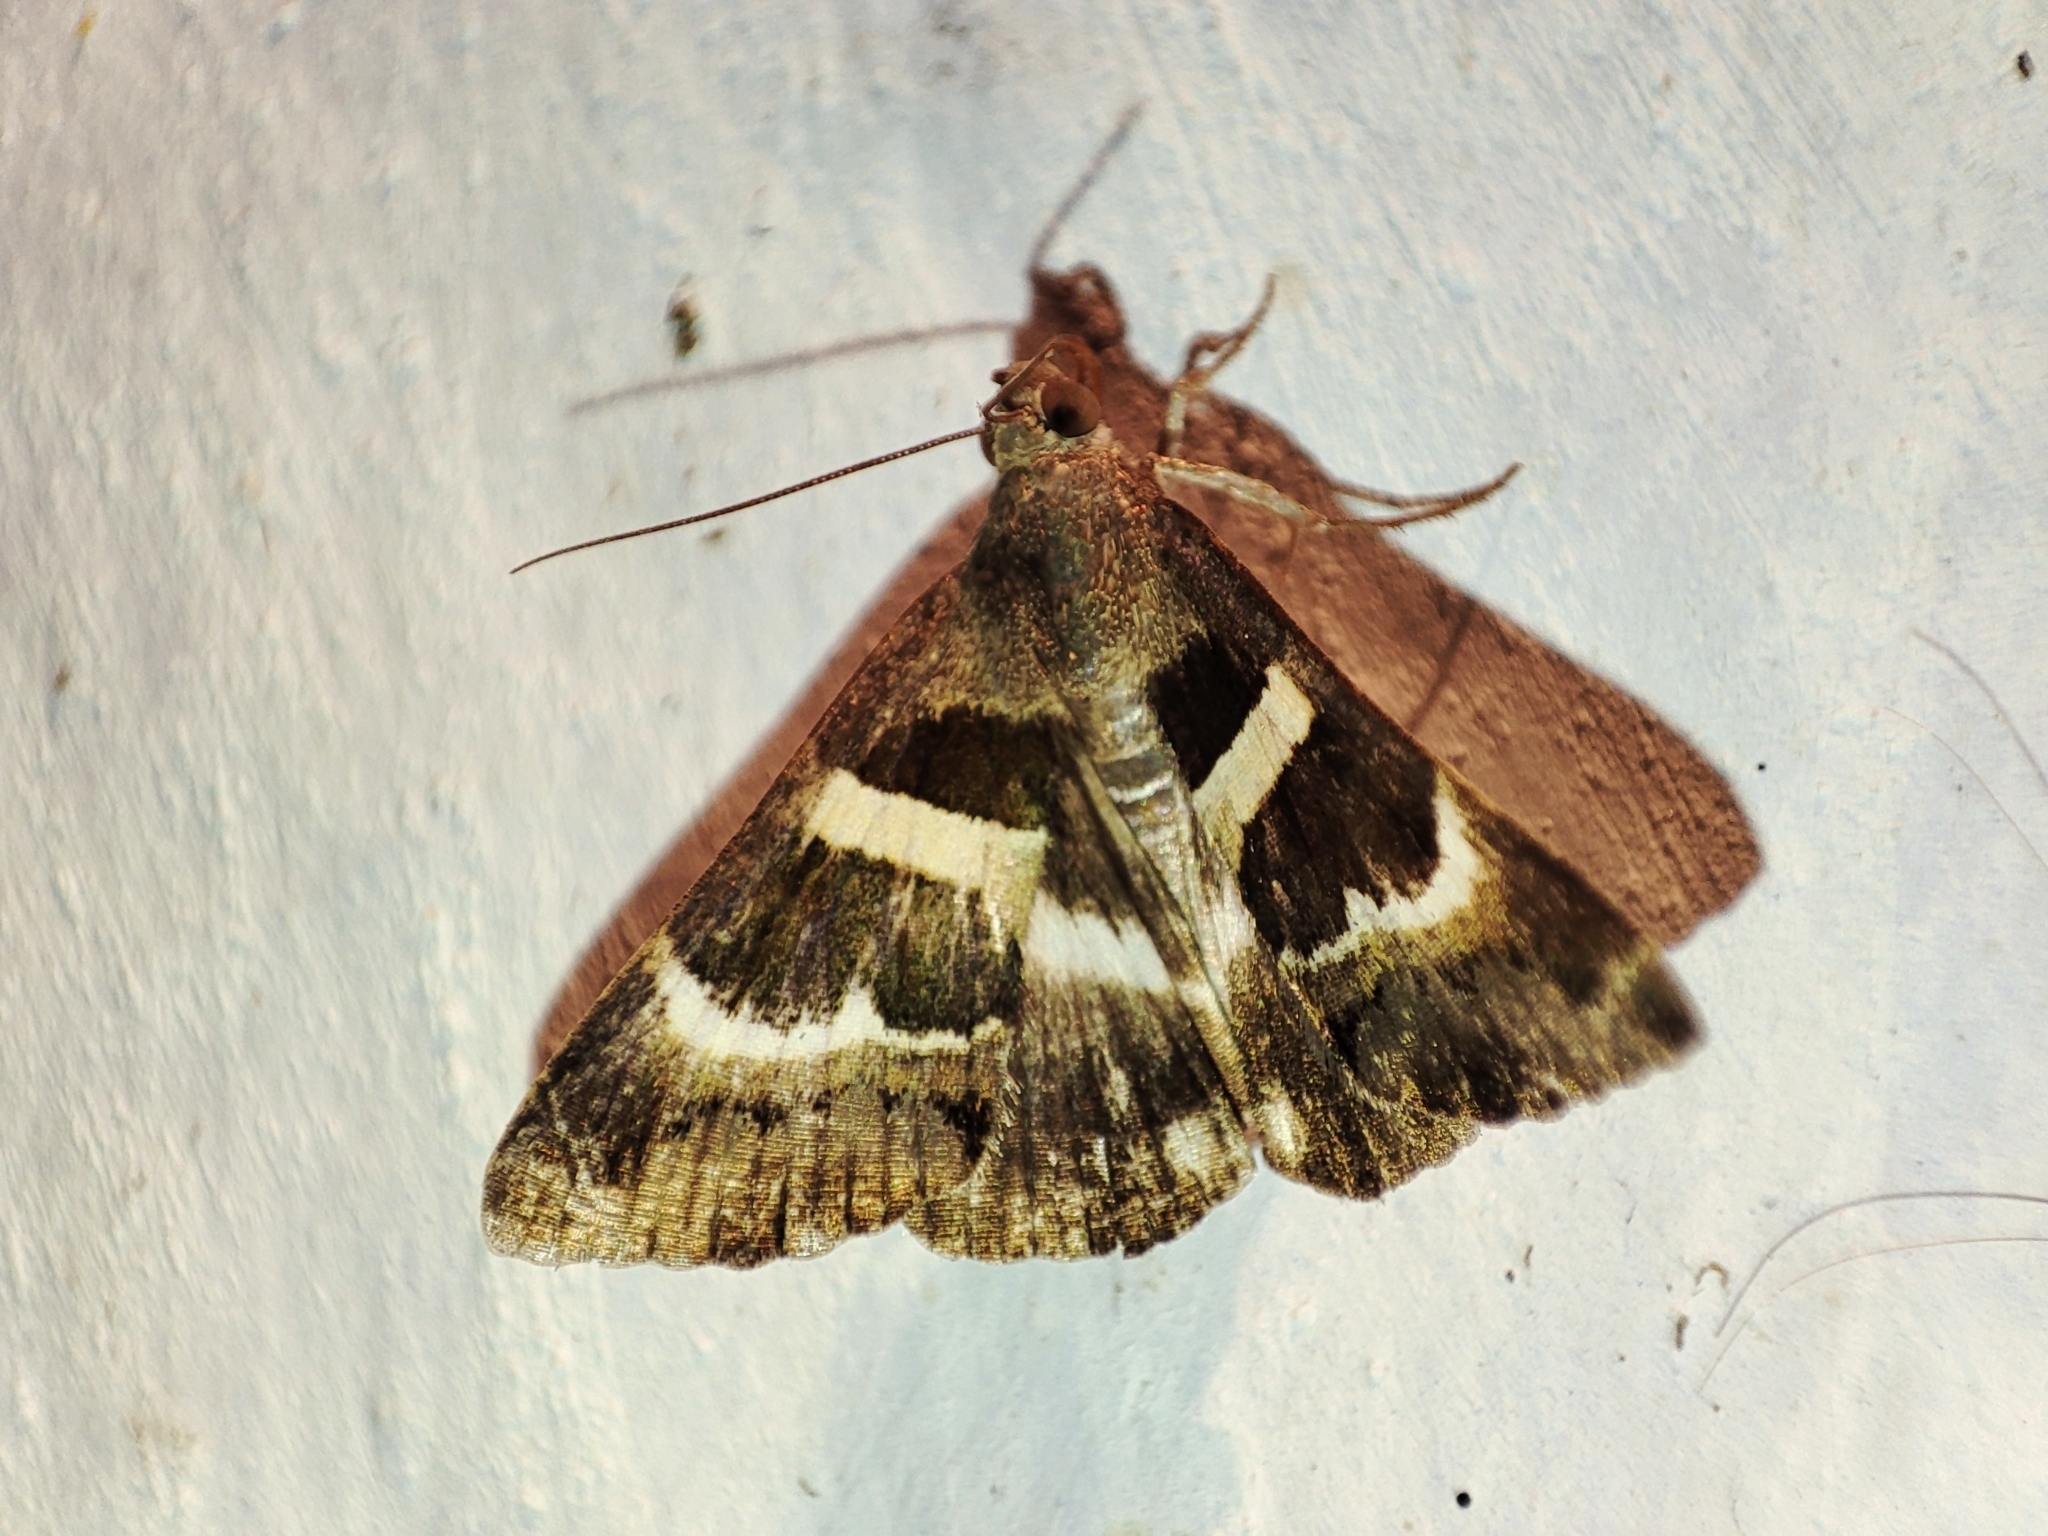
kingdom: Animalia
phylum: Arthropoda
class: Insecta
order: Lepidoptera
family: Erebidae
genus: Grammodes
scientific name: Grammodes stolida
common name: Geometrician
